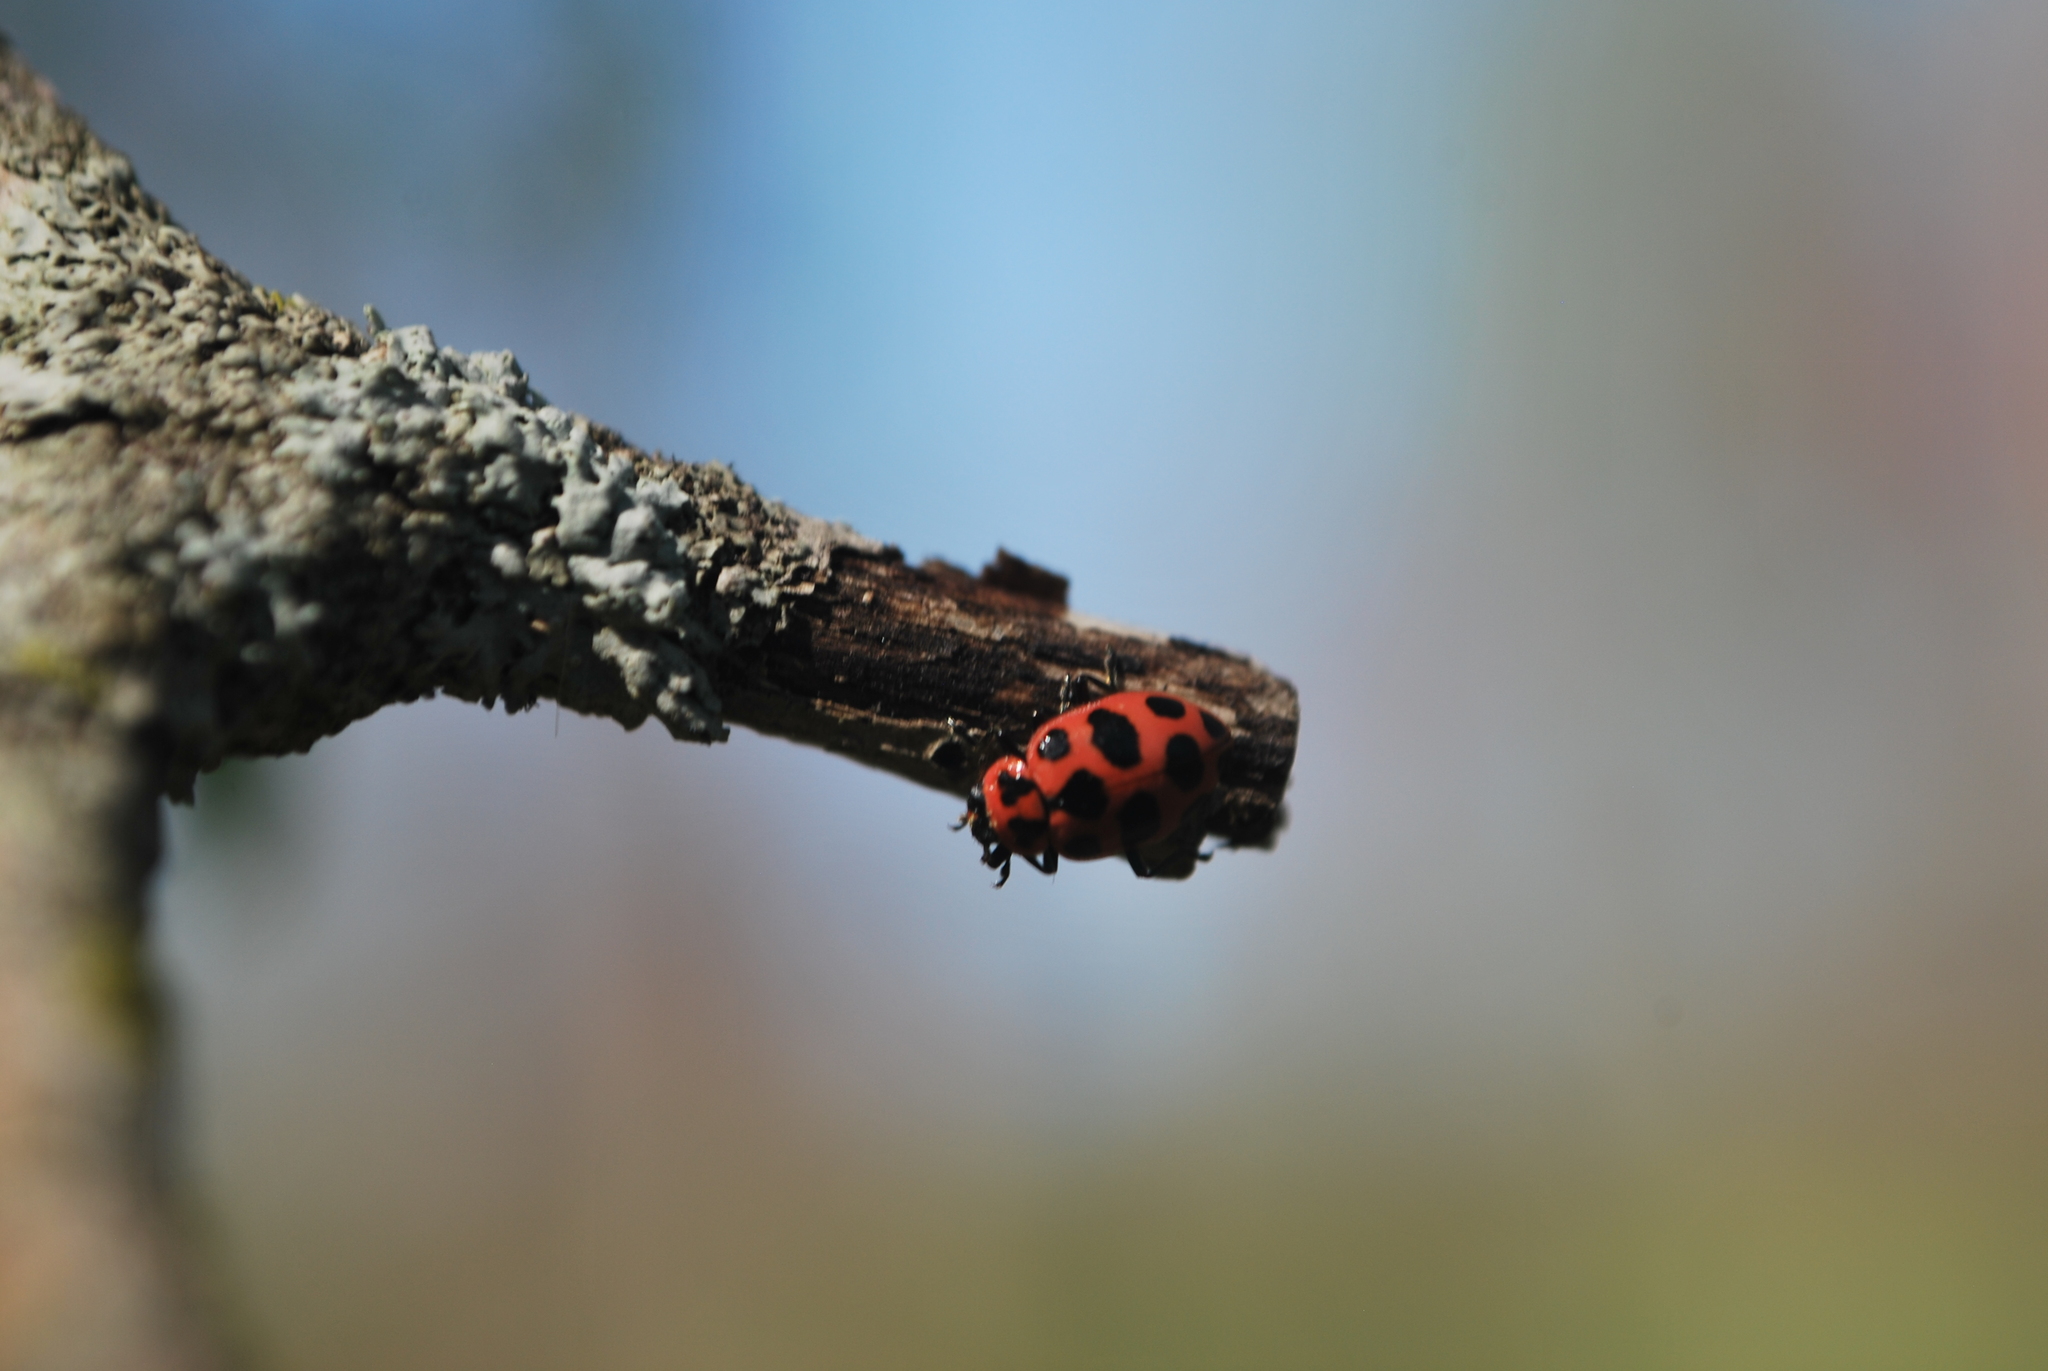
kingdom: Animalia
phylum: Arthropoda
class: Insecta
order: Coleoptera
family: Coccinellidae
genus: Coleomegilla
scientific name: Coleomegilla maculata
